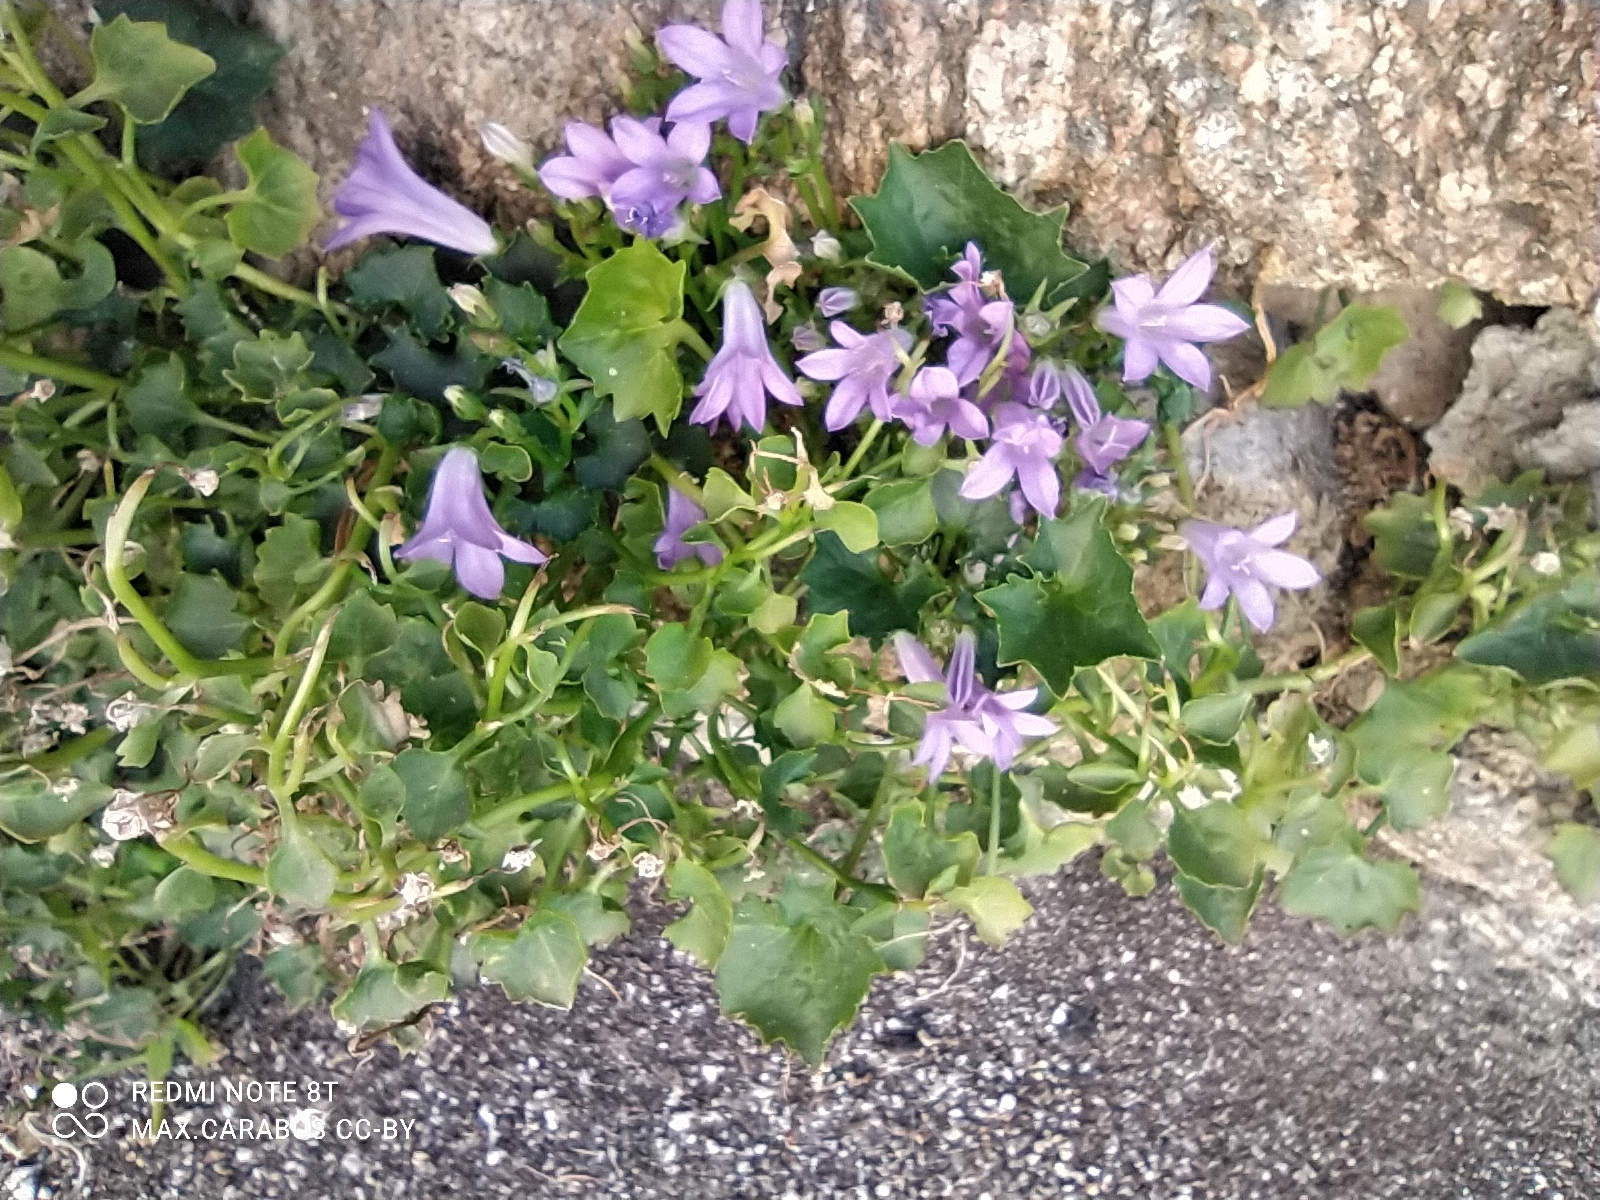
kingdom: Plantae
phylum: Tracheophyta
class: Magnoliopsida
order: Asterales
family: Campanulaceae
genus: Campanula
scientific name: Campanula portenschlagiana
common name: Adria bellflower
